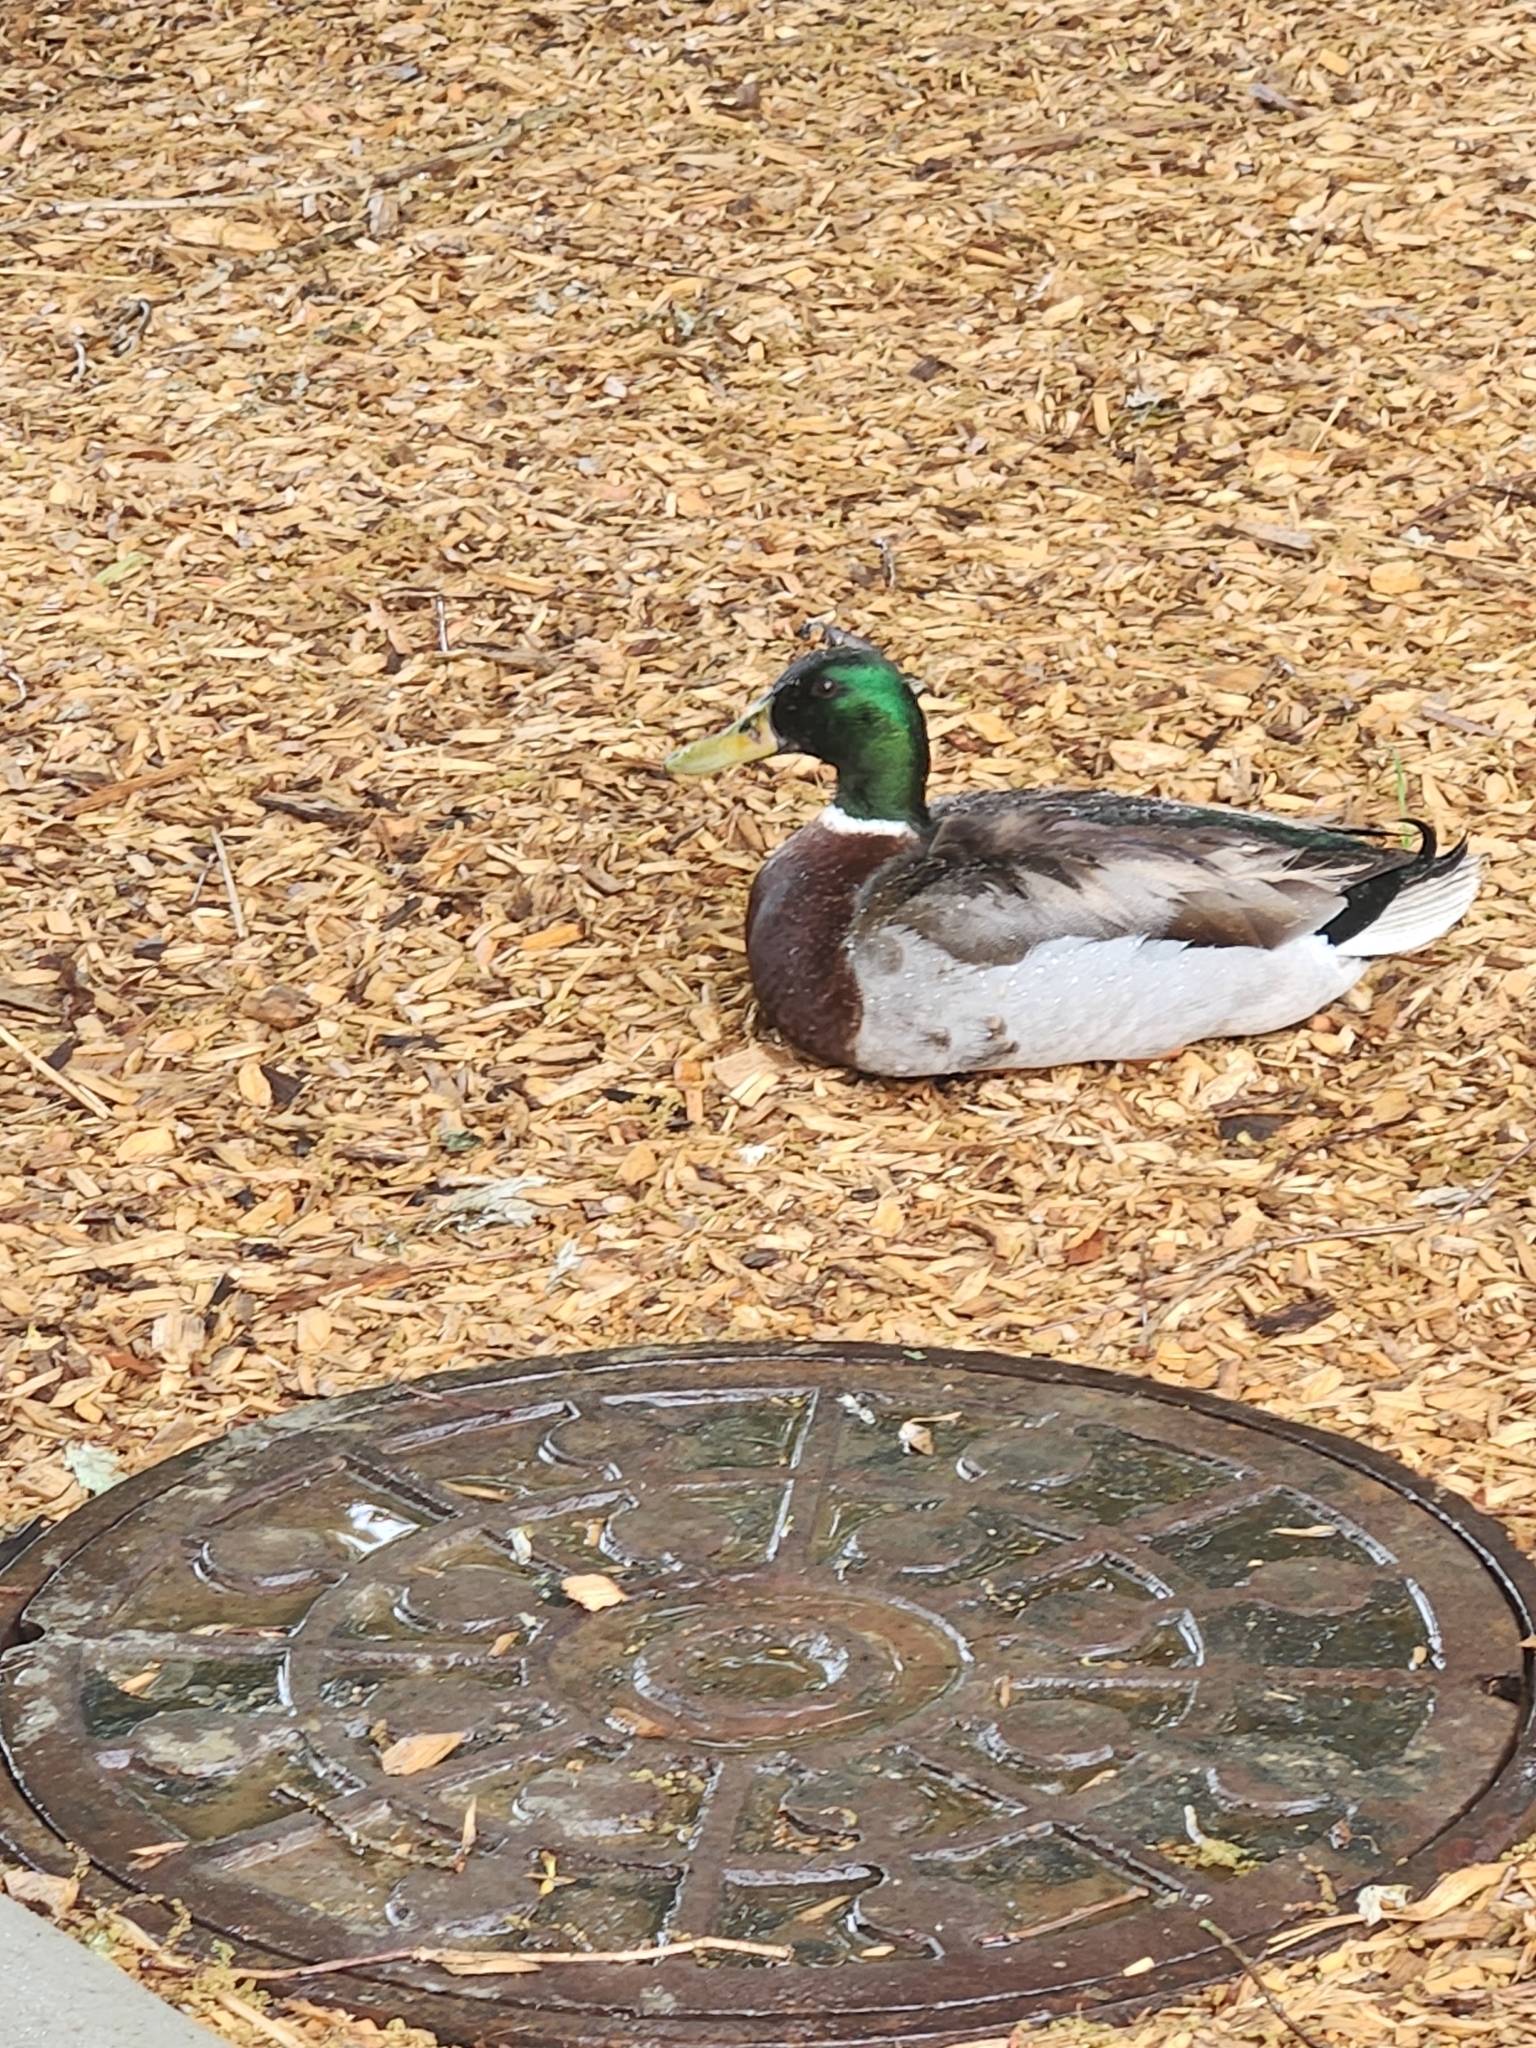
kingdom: Animalia
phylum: Chordata
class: Aves
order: Anseriformes
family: Anatidae
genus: Anas
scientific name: Anas platyrhynchos
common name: Mallard
